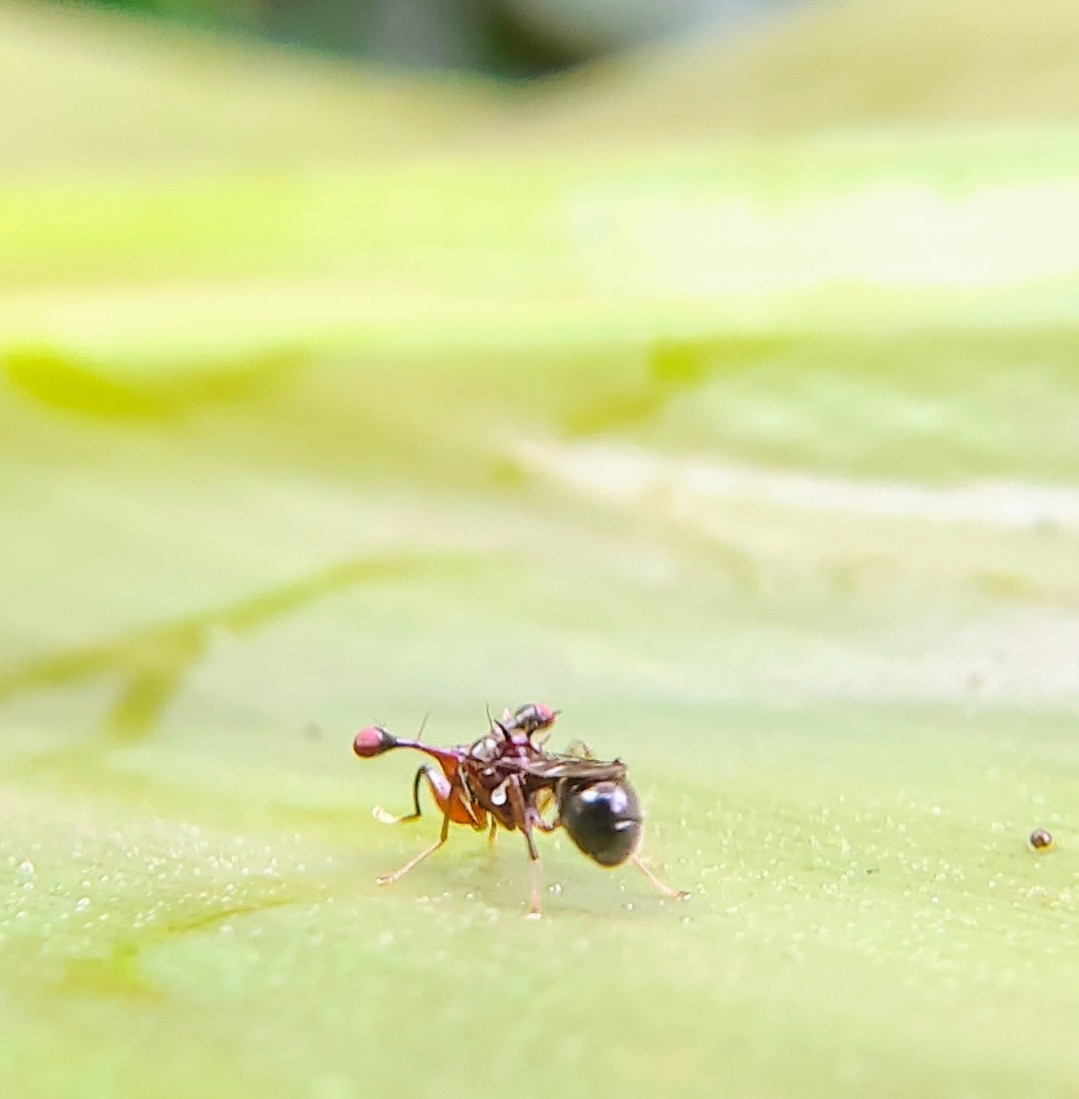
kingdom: Animalia
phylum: Arthropoda
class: Insecta
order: Diptera
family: Diopsidae
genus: Megalabops
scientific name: Megalabops
